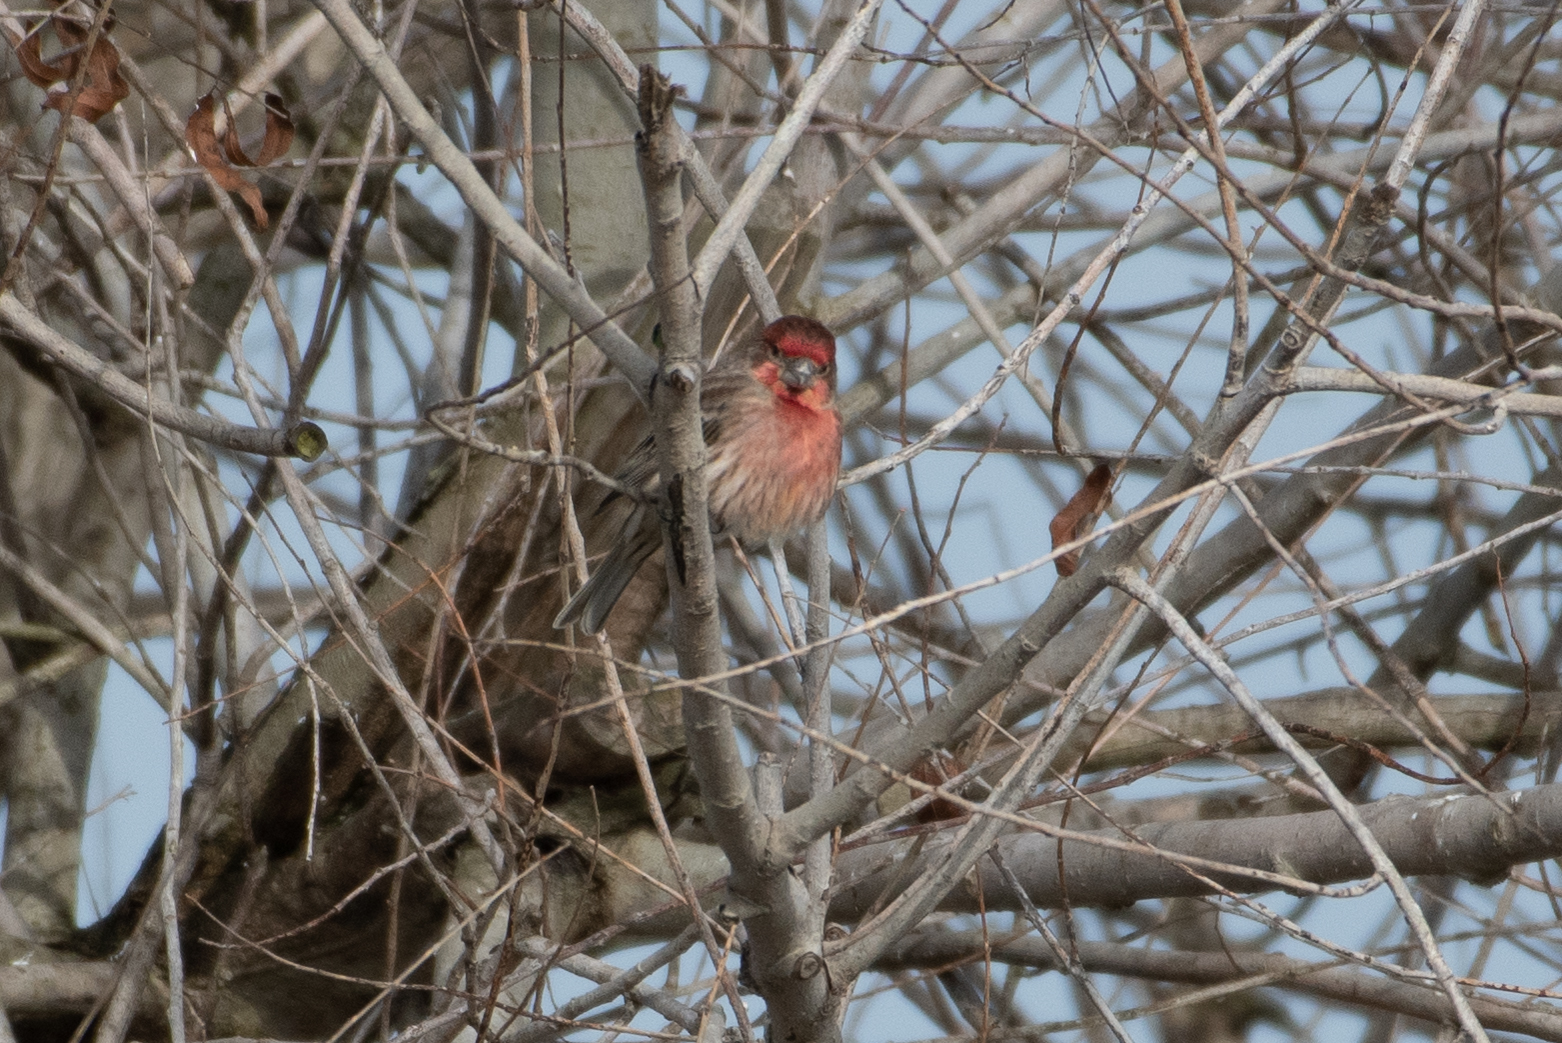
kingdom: Animalia
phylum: Chordata
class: Aves
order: Passeriformes
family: Fringillidae
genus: Haemorhous
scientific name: Haemorhous mexicanus
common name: House finch
